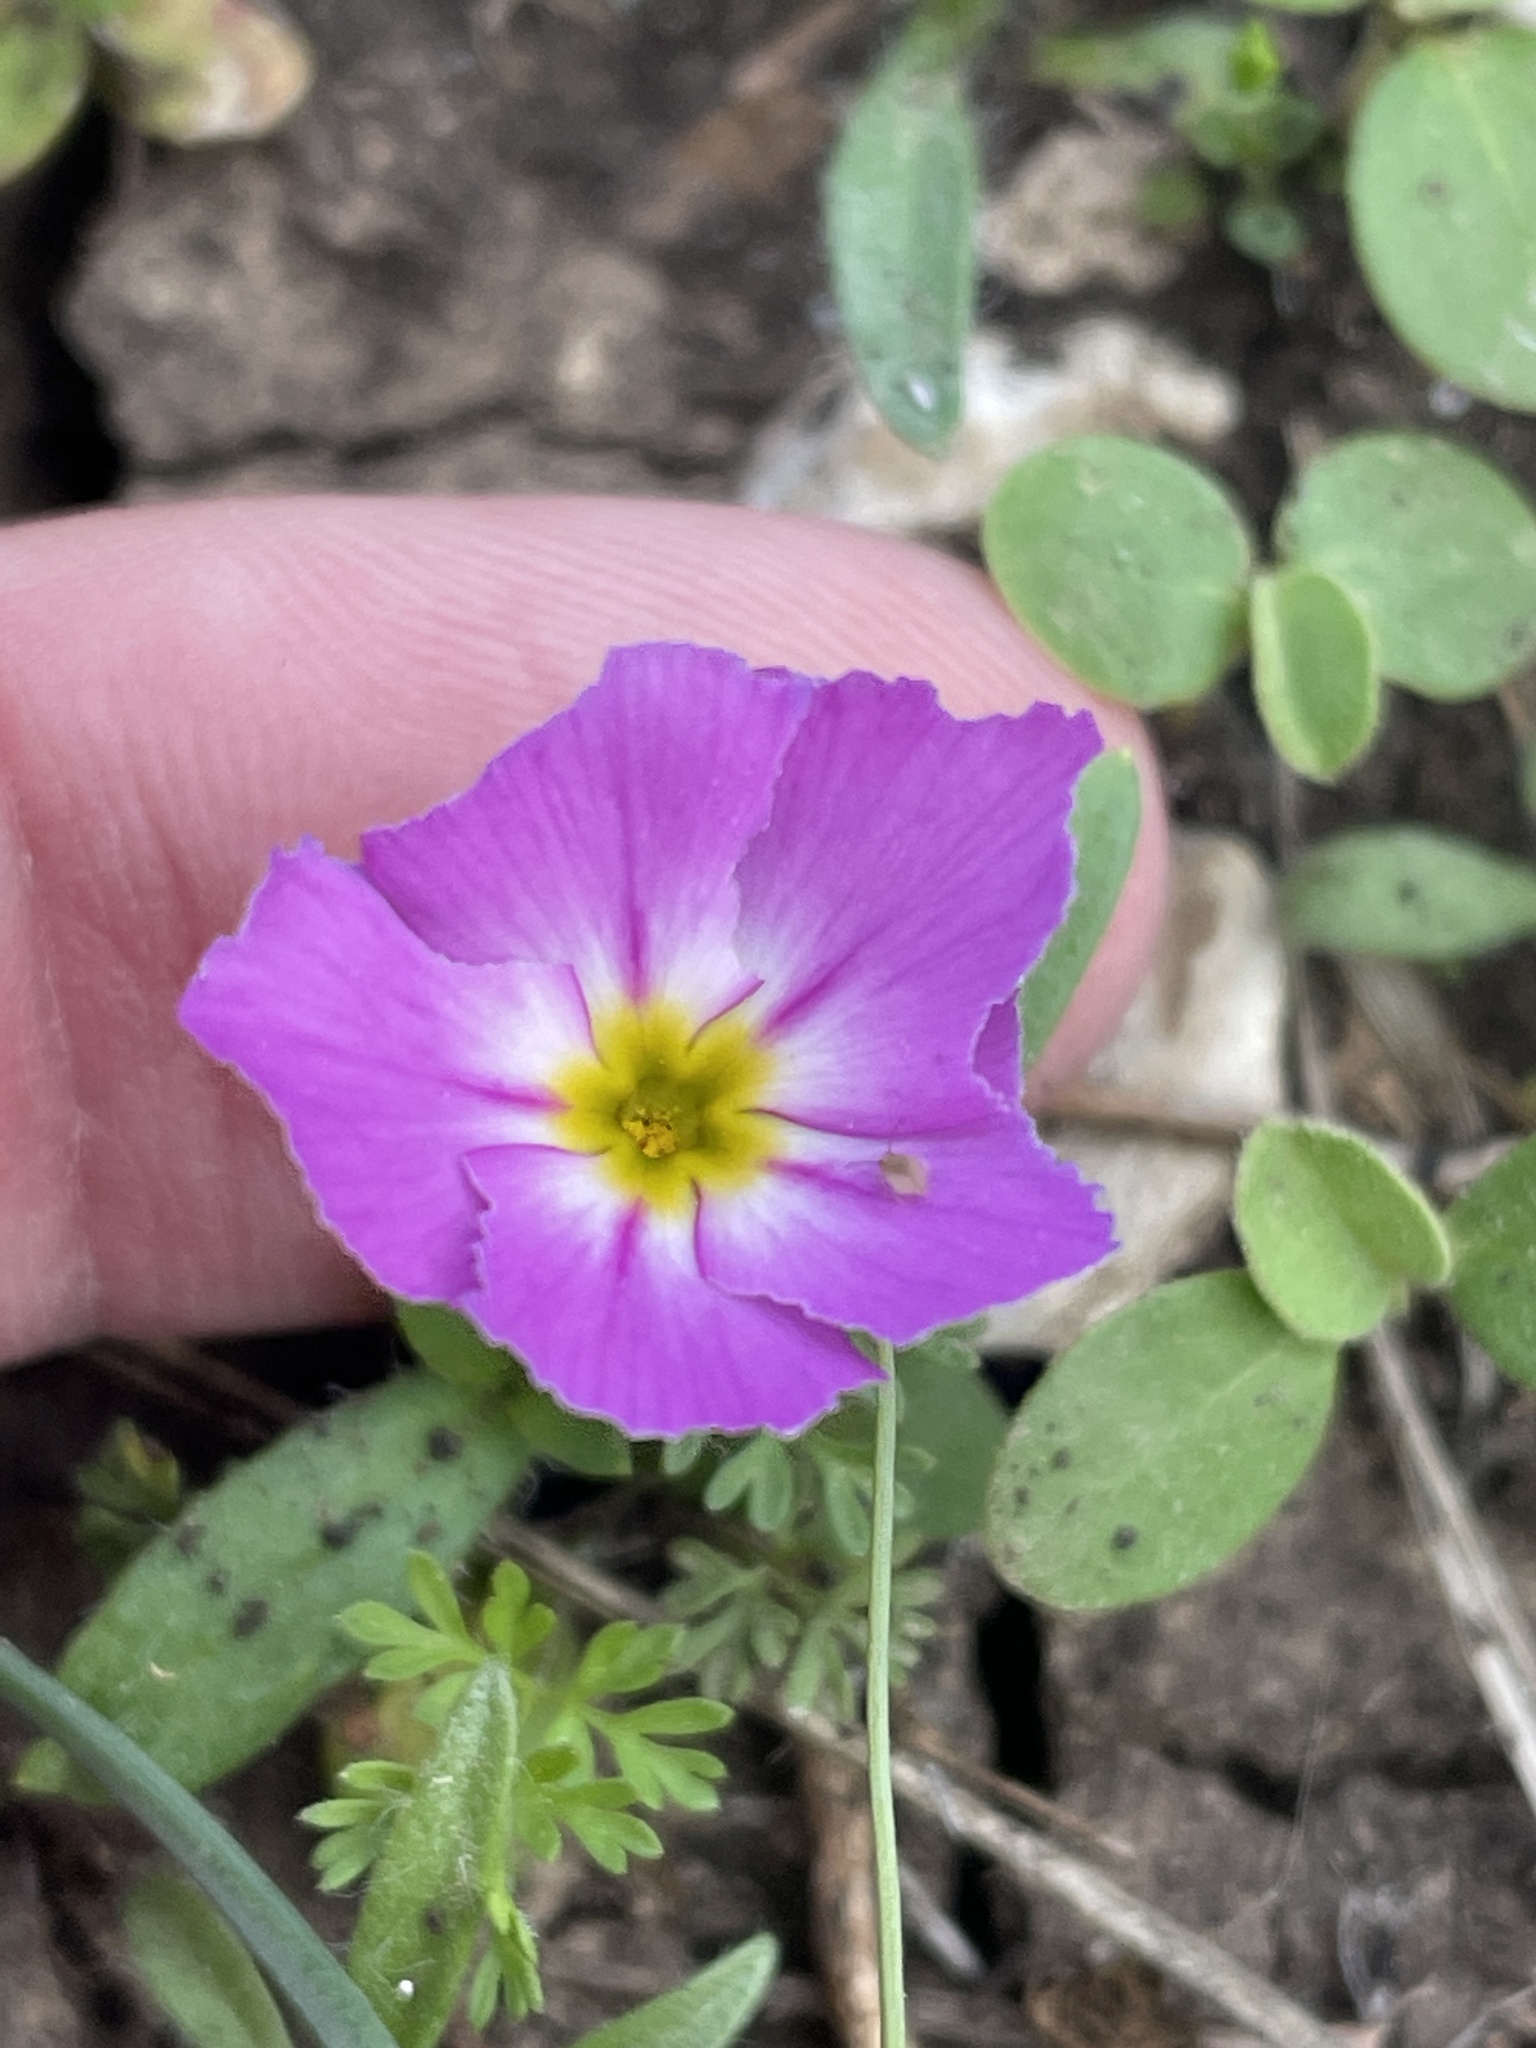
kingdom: Plantae
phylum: Tracheophyta
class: Magnoliopsida
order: Ericales
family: Polemoniaceae
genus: Phlox
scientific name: Phlox roemeriana
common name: Roemer's phlox
